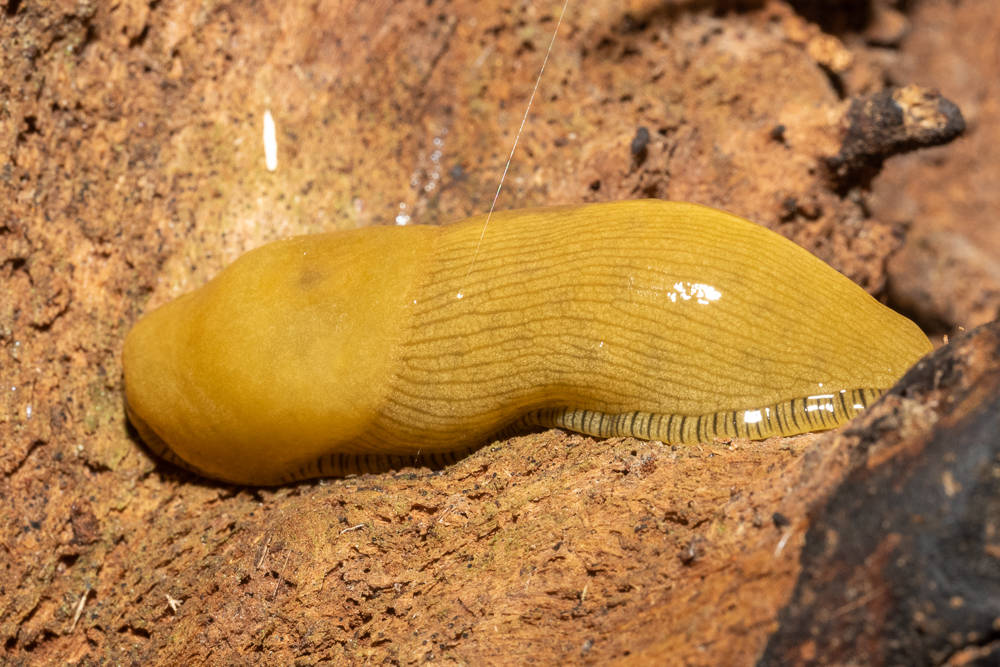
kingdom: Animalia
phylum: Mollusca
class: Gastropoda
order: Stylommatophora
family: Ariolimacidae
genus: Ariolimax
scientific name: Ariolimax buttoni
